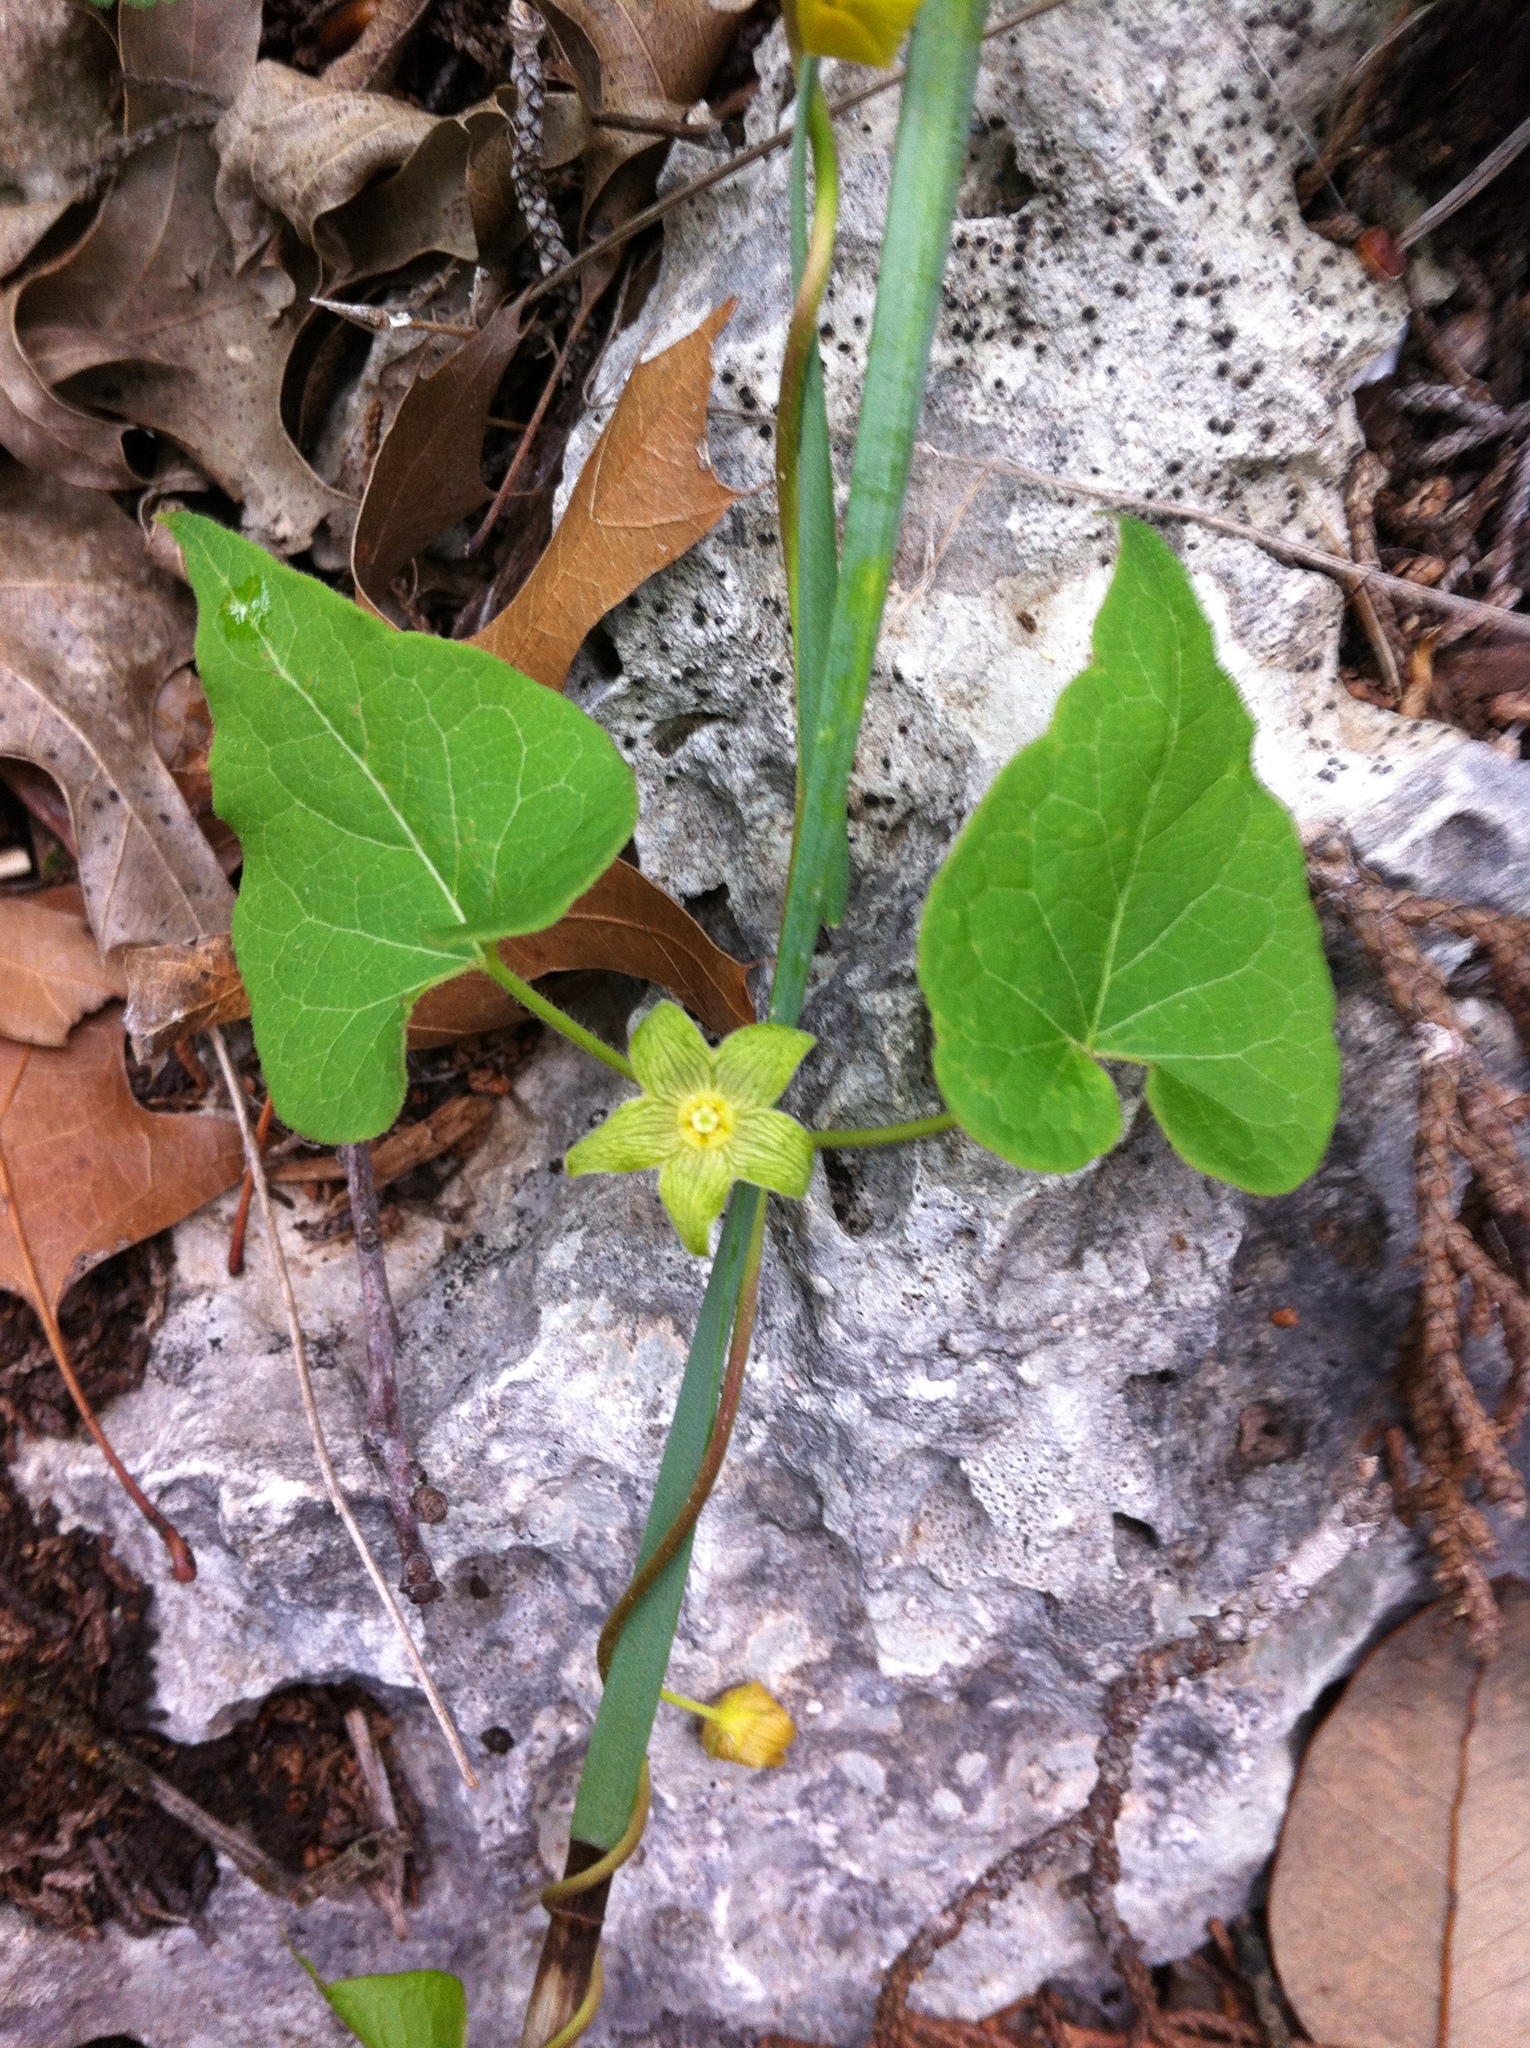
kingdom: Plantae
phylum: Tracheophyta
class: Magnoliopsida
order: Gentianales
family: Apocynaceae
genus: Matelea
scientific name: Matelea edwardsensis
